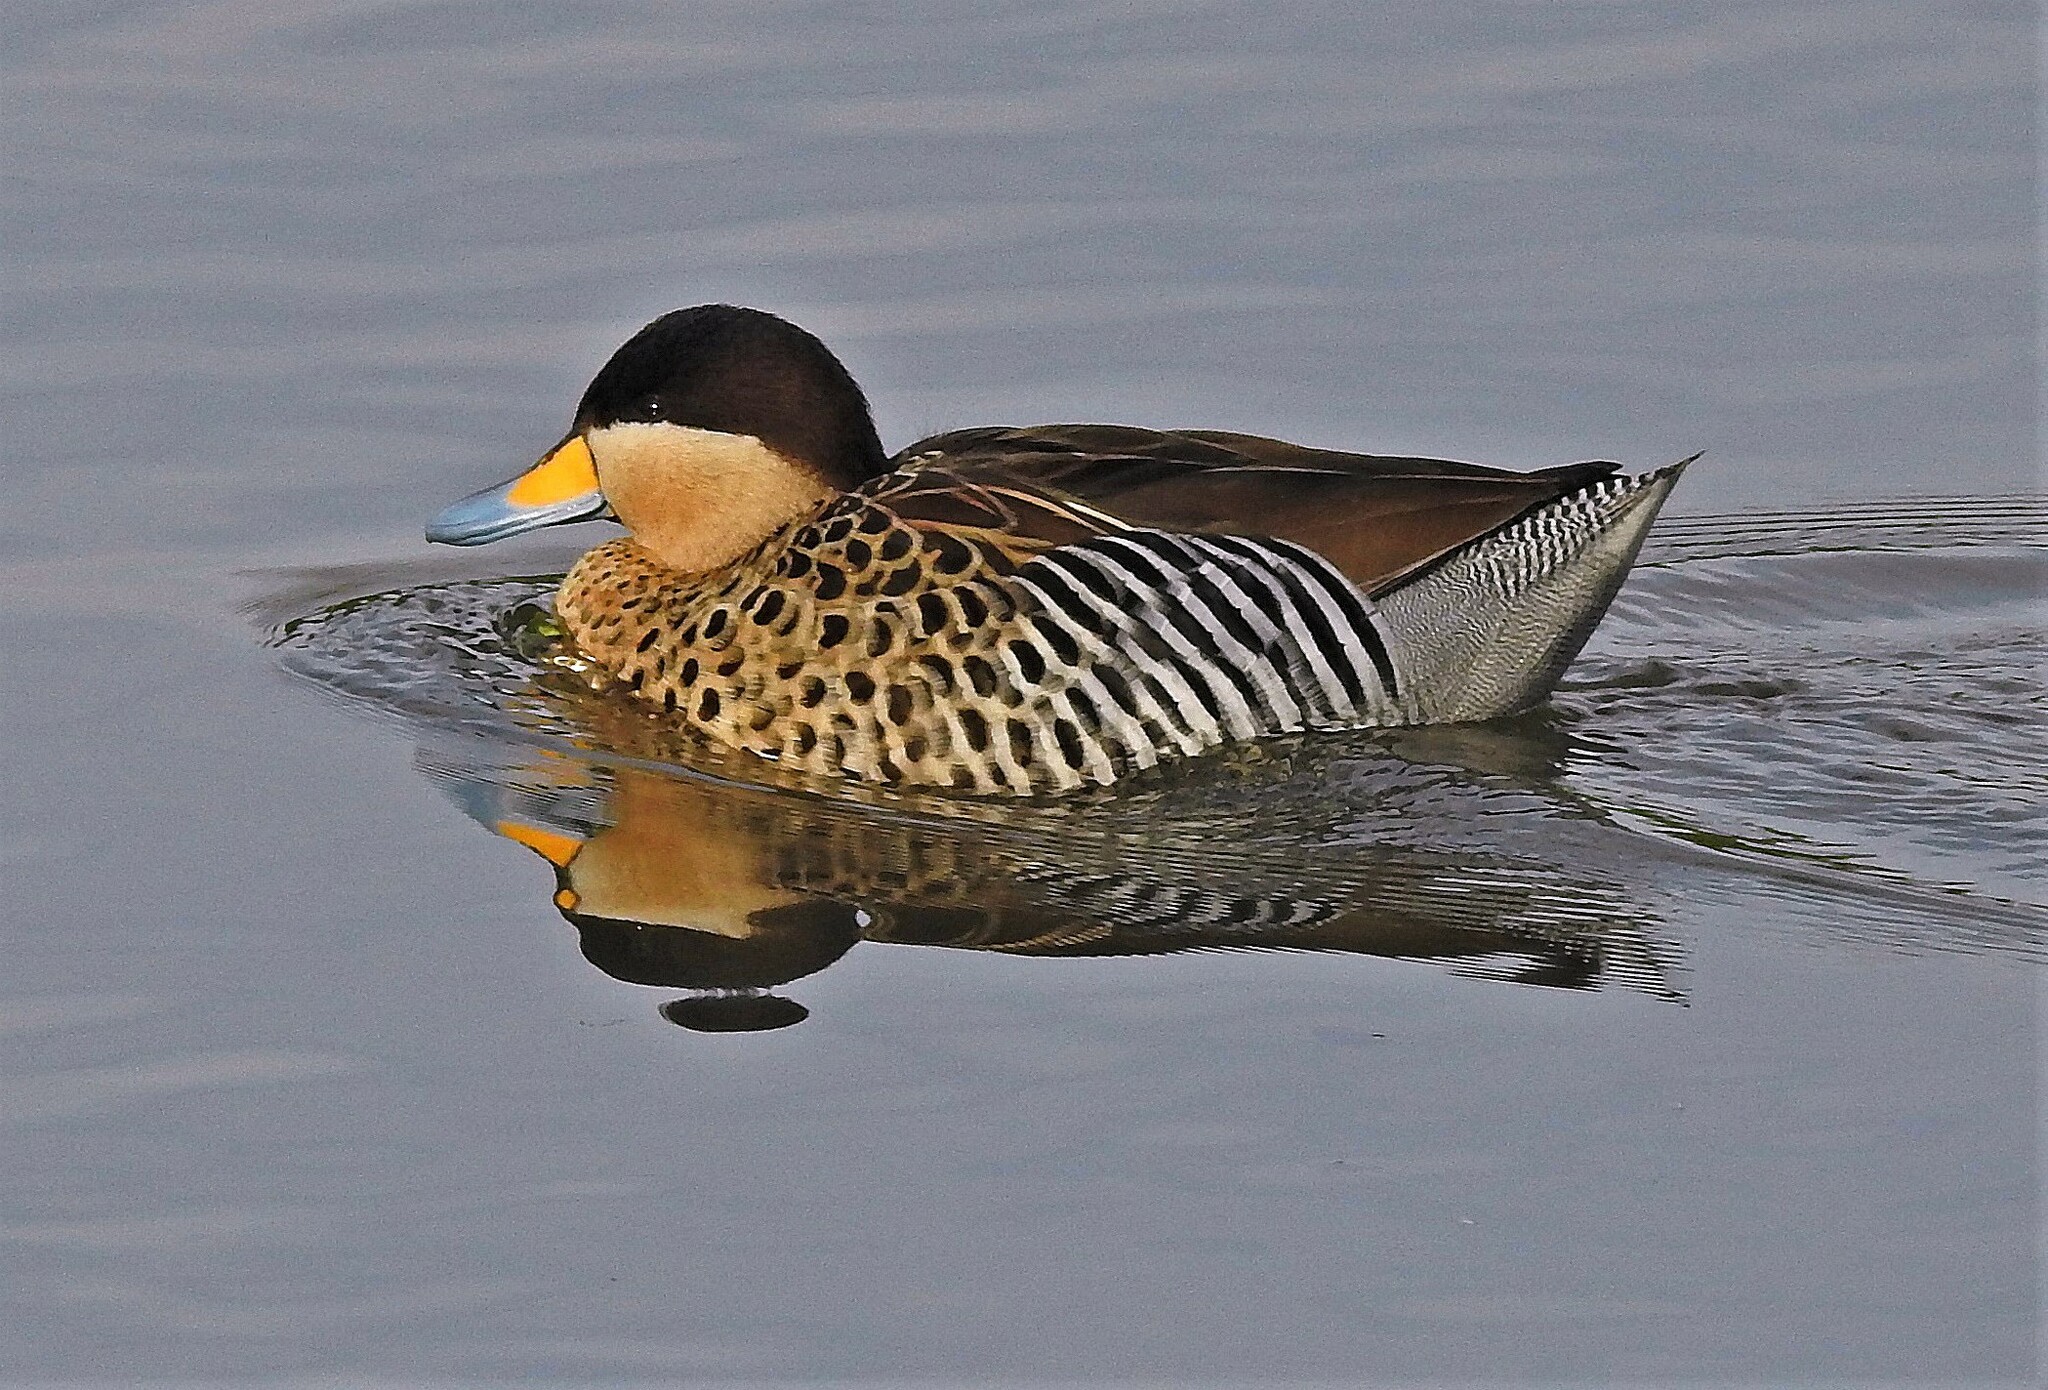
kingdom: Animalia
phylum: Chordata
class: Aves
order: Anseriformes
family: Anatidae
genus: Spatula
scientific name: Spatula versicolor
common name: Silver teal
